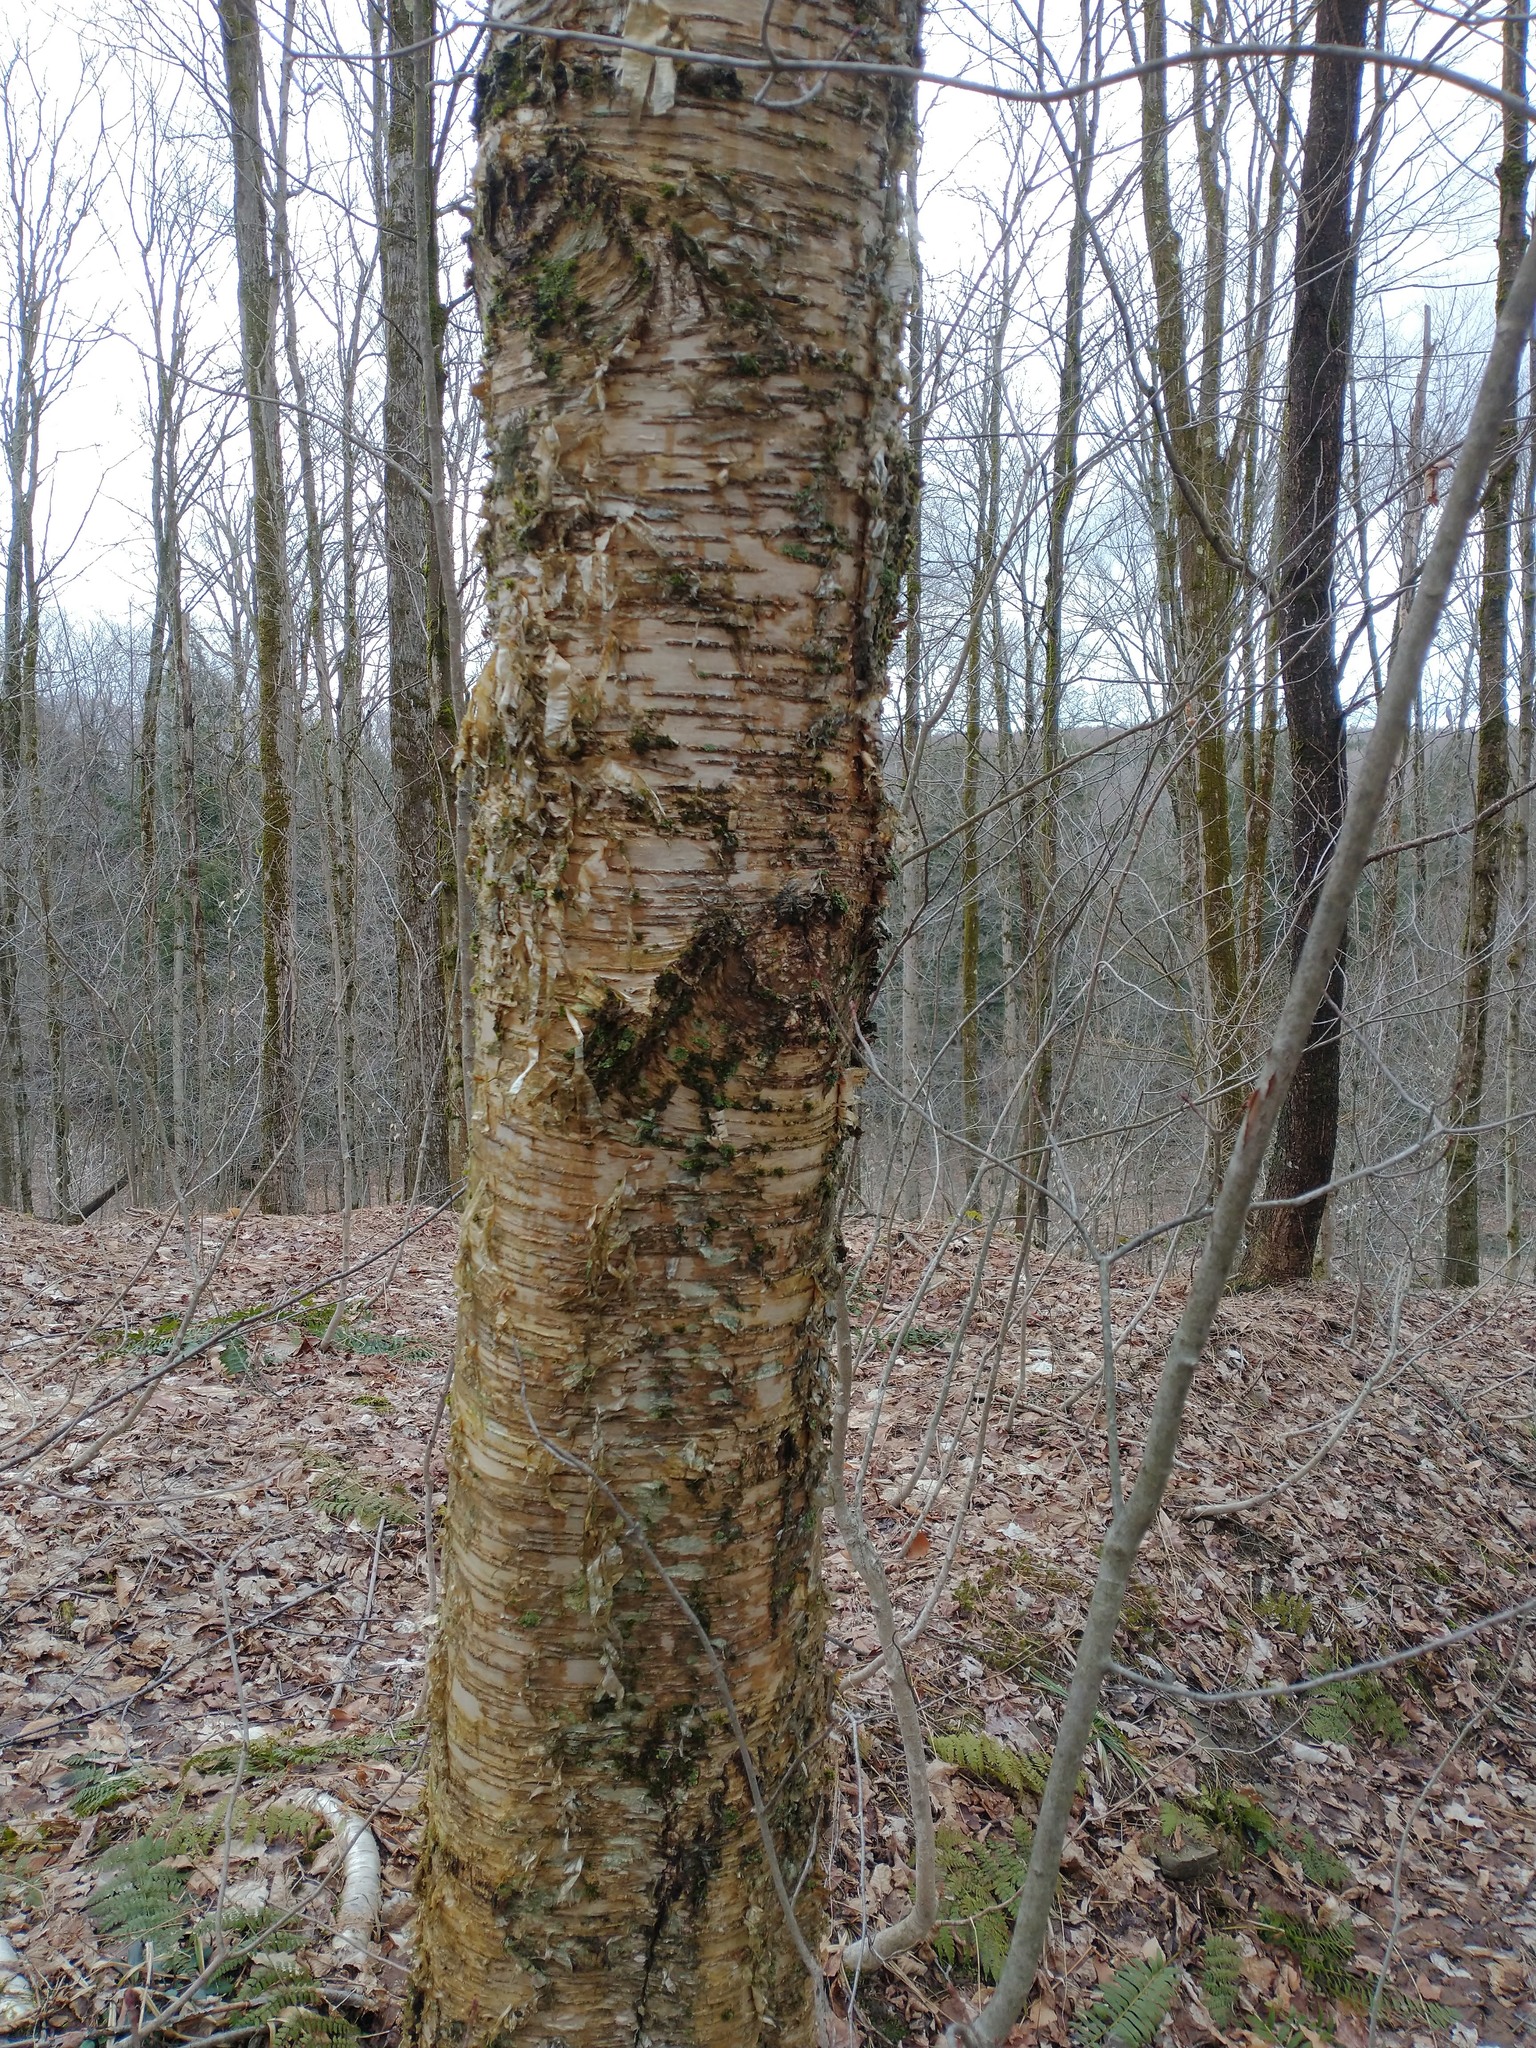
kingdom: Plantae
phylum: Tracheophyta
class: Magnoliopsida
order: Fagales
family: Betulaceae
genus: Betula
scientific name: Betula alleghaniensis
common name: Yellow birch
